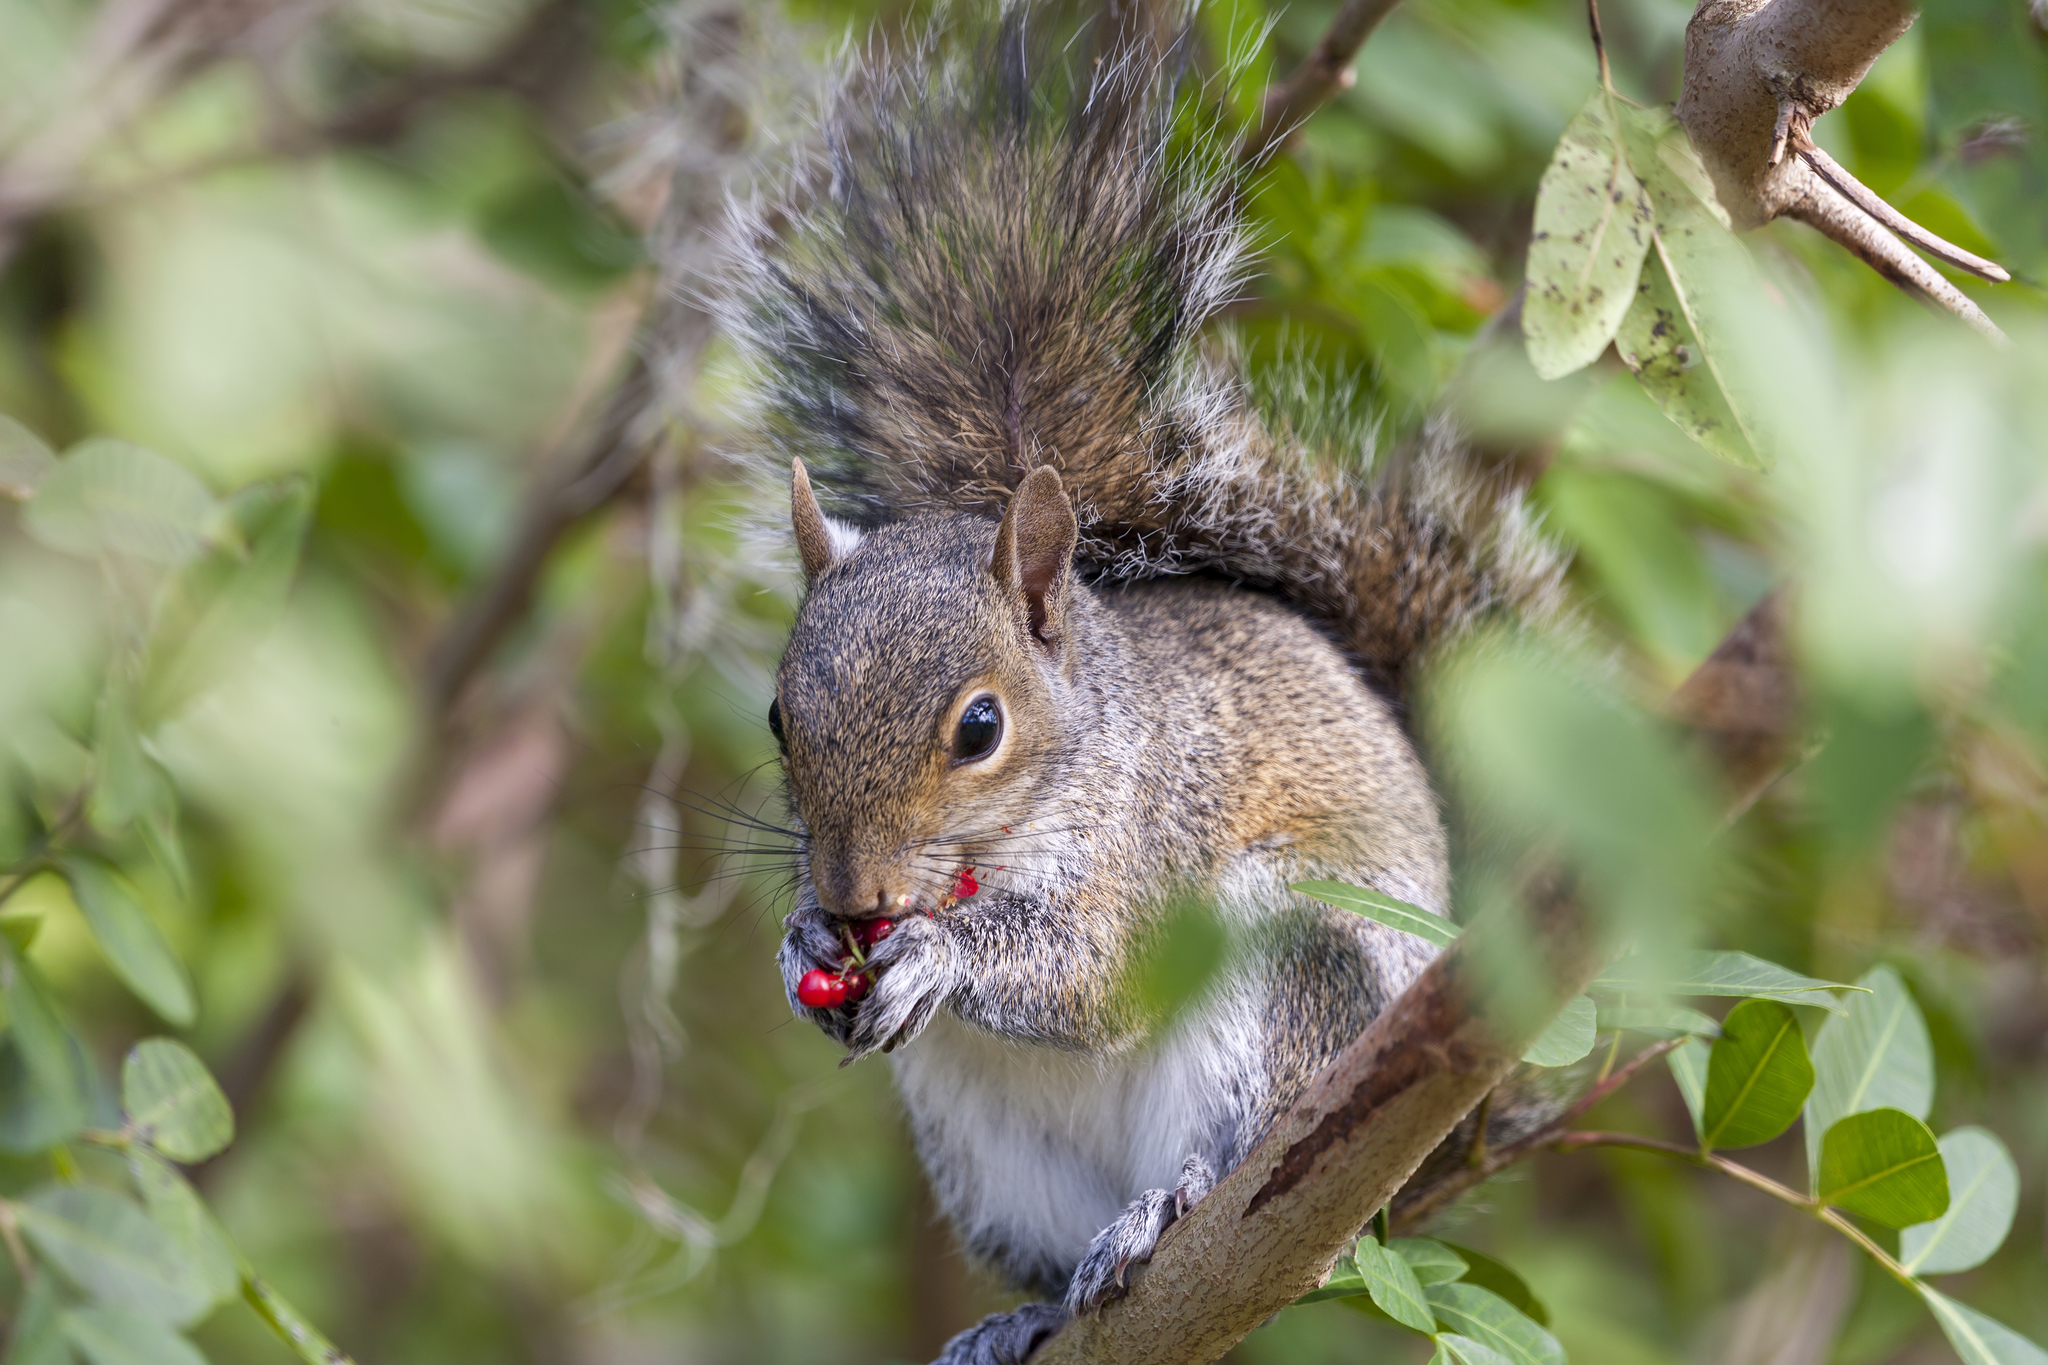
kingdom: Animalia
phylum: Chordata
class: Mammalia
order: Rodentia
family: Sciuridae
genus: Sciurus
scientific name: Sciurus carolinensis
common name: Eastern gray squirrel
